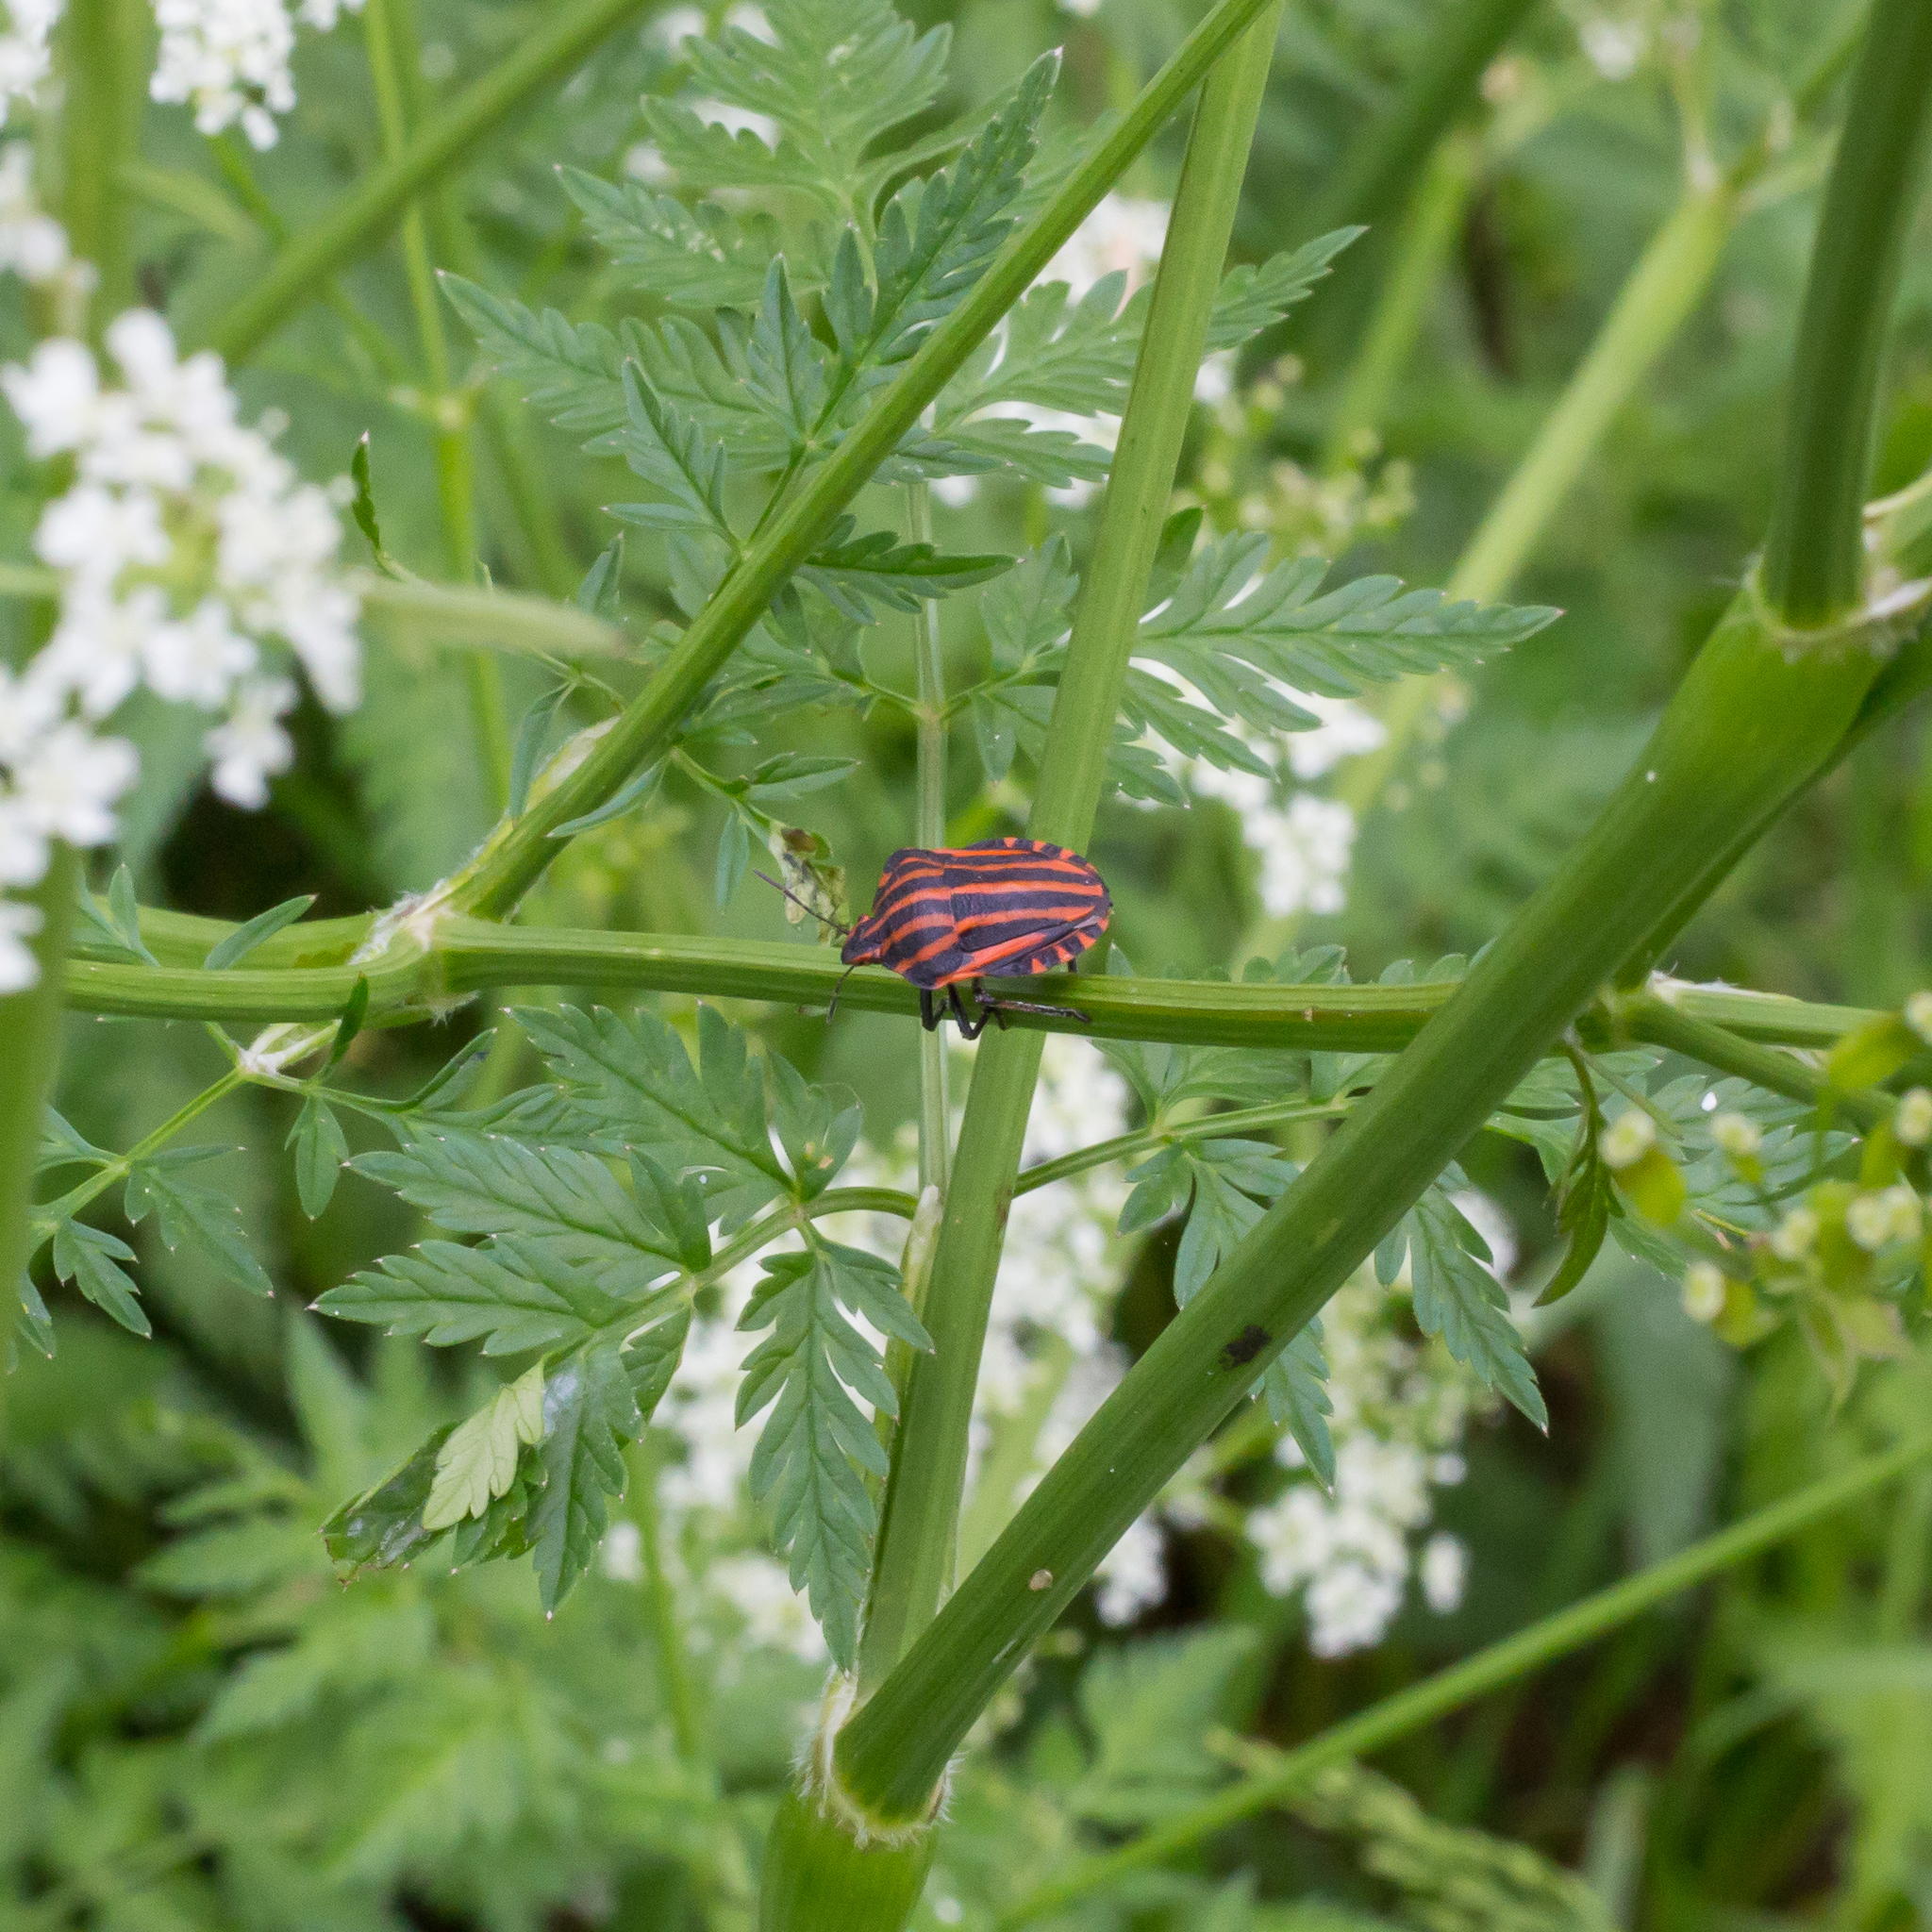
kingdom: Animalia
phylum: Arthropoda
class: Insecta
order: Hemiptera
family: Pentatomidae
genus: Graphosoma
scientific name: Graphosoma italicum
